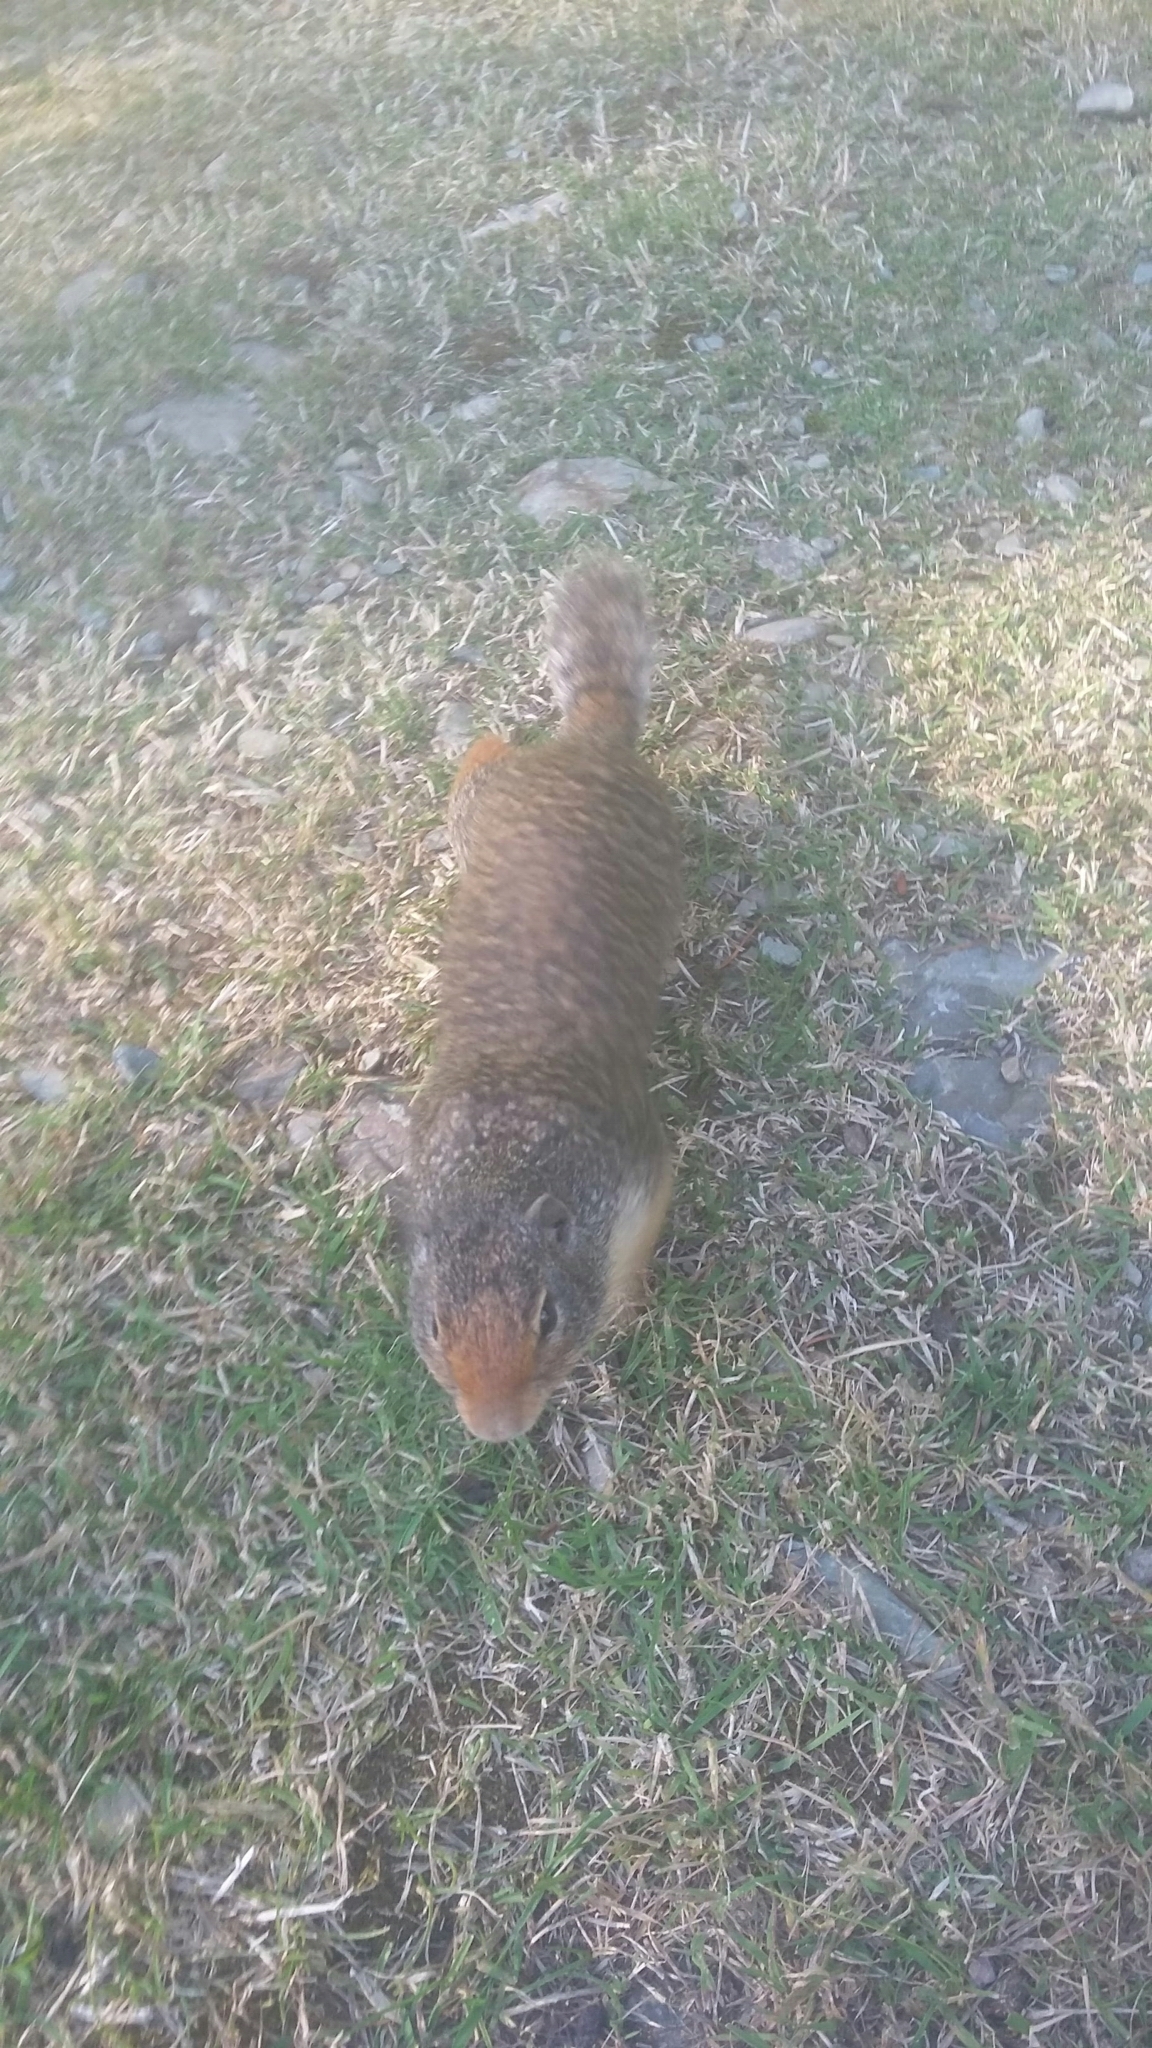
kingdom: Animalia
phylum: Chordata
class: Mammalia
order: Rodentia
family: Sciuridae
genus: Urocitellus
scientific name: Urocitellus columbianus
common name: Columbian ground squirrel
